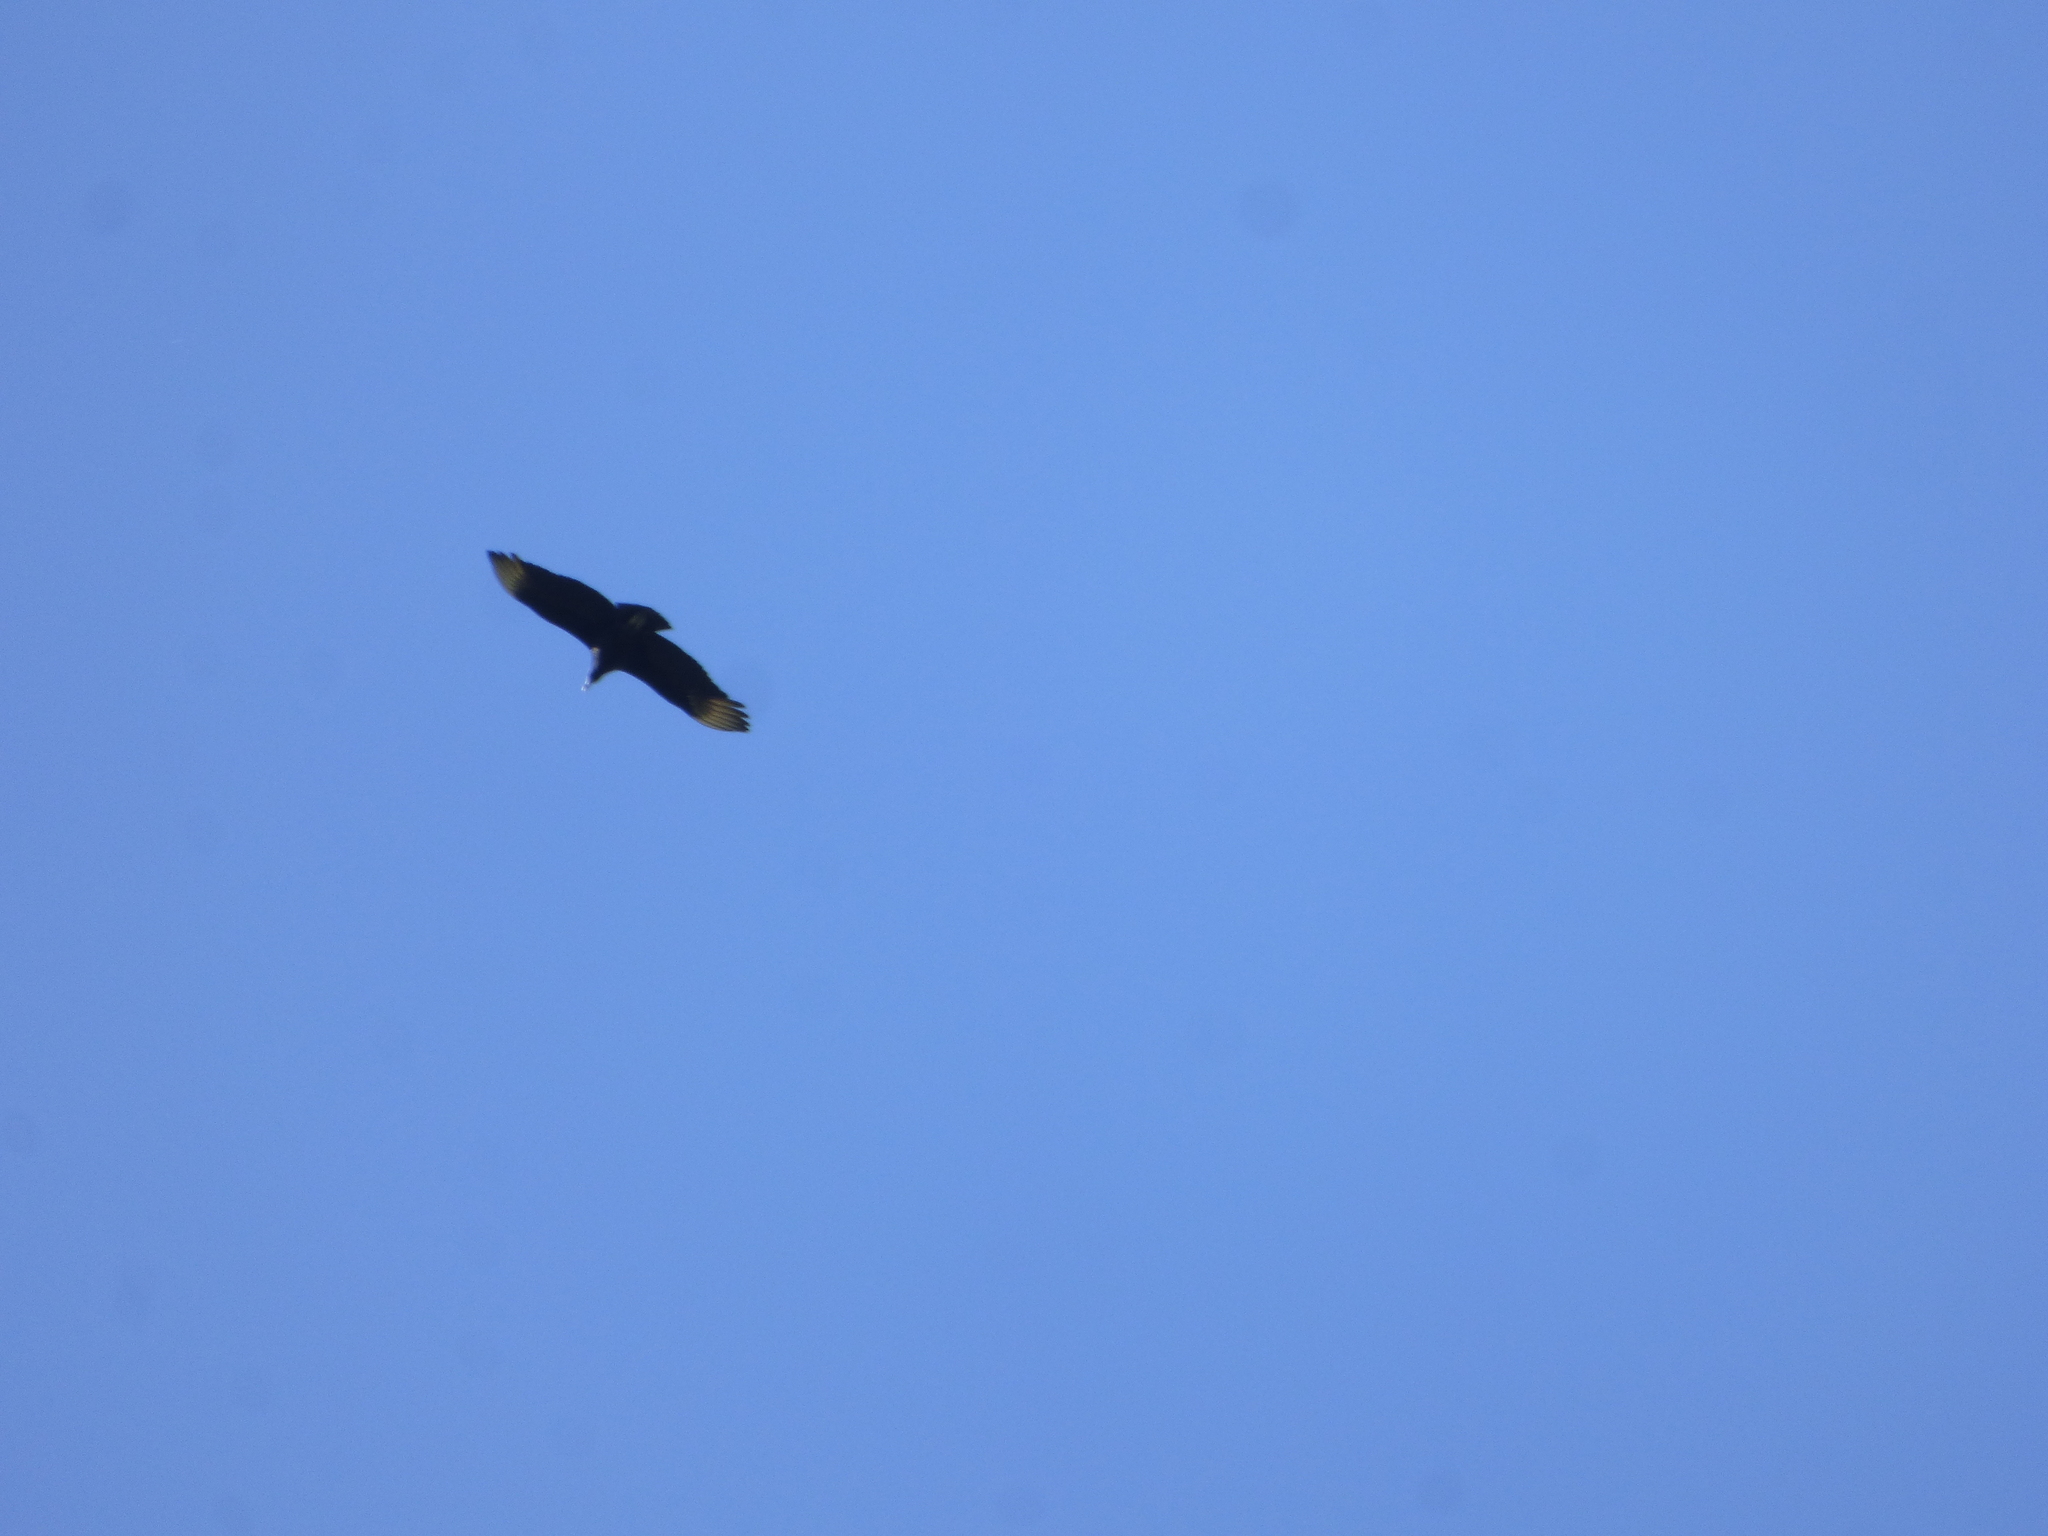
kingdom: Animalia
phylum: Chordata
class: Aves
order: Accipitriformes
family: Cathartidae
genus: Coragyps
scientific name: Coragyps atratus
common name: Black vulture
